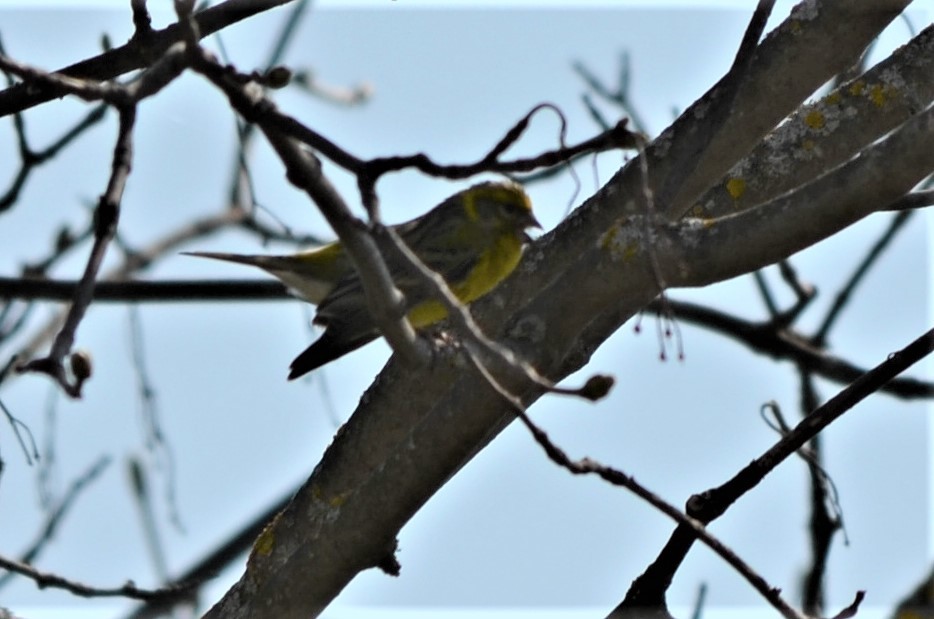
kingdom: Animalia
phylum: Chordata
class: Aves
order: Passeriformes
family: Fringillidae
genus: Serinus
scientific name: Serinus serinus
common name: European serin
